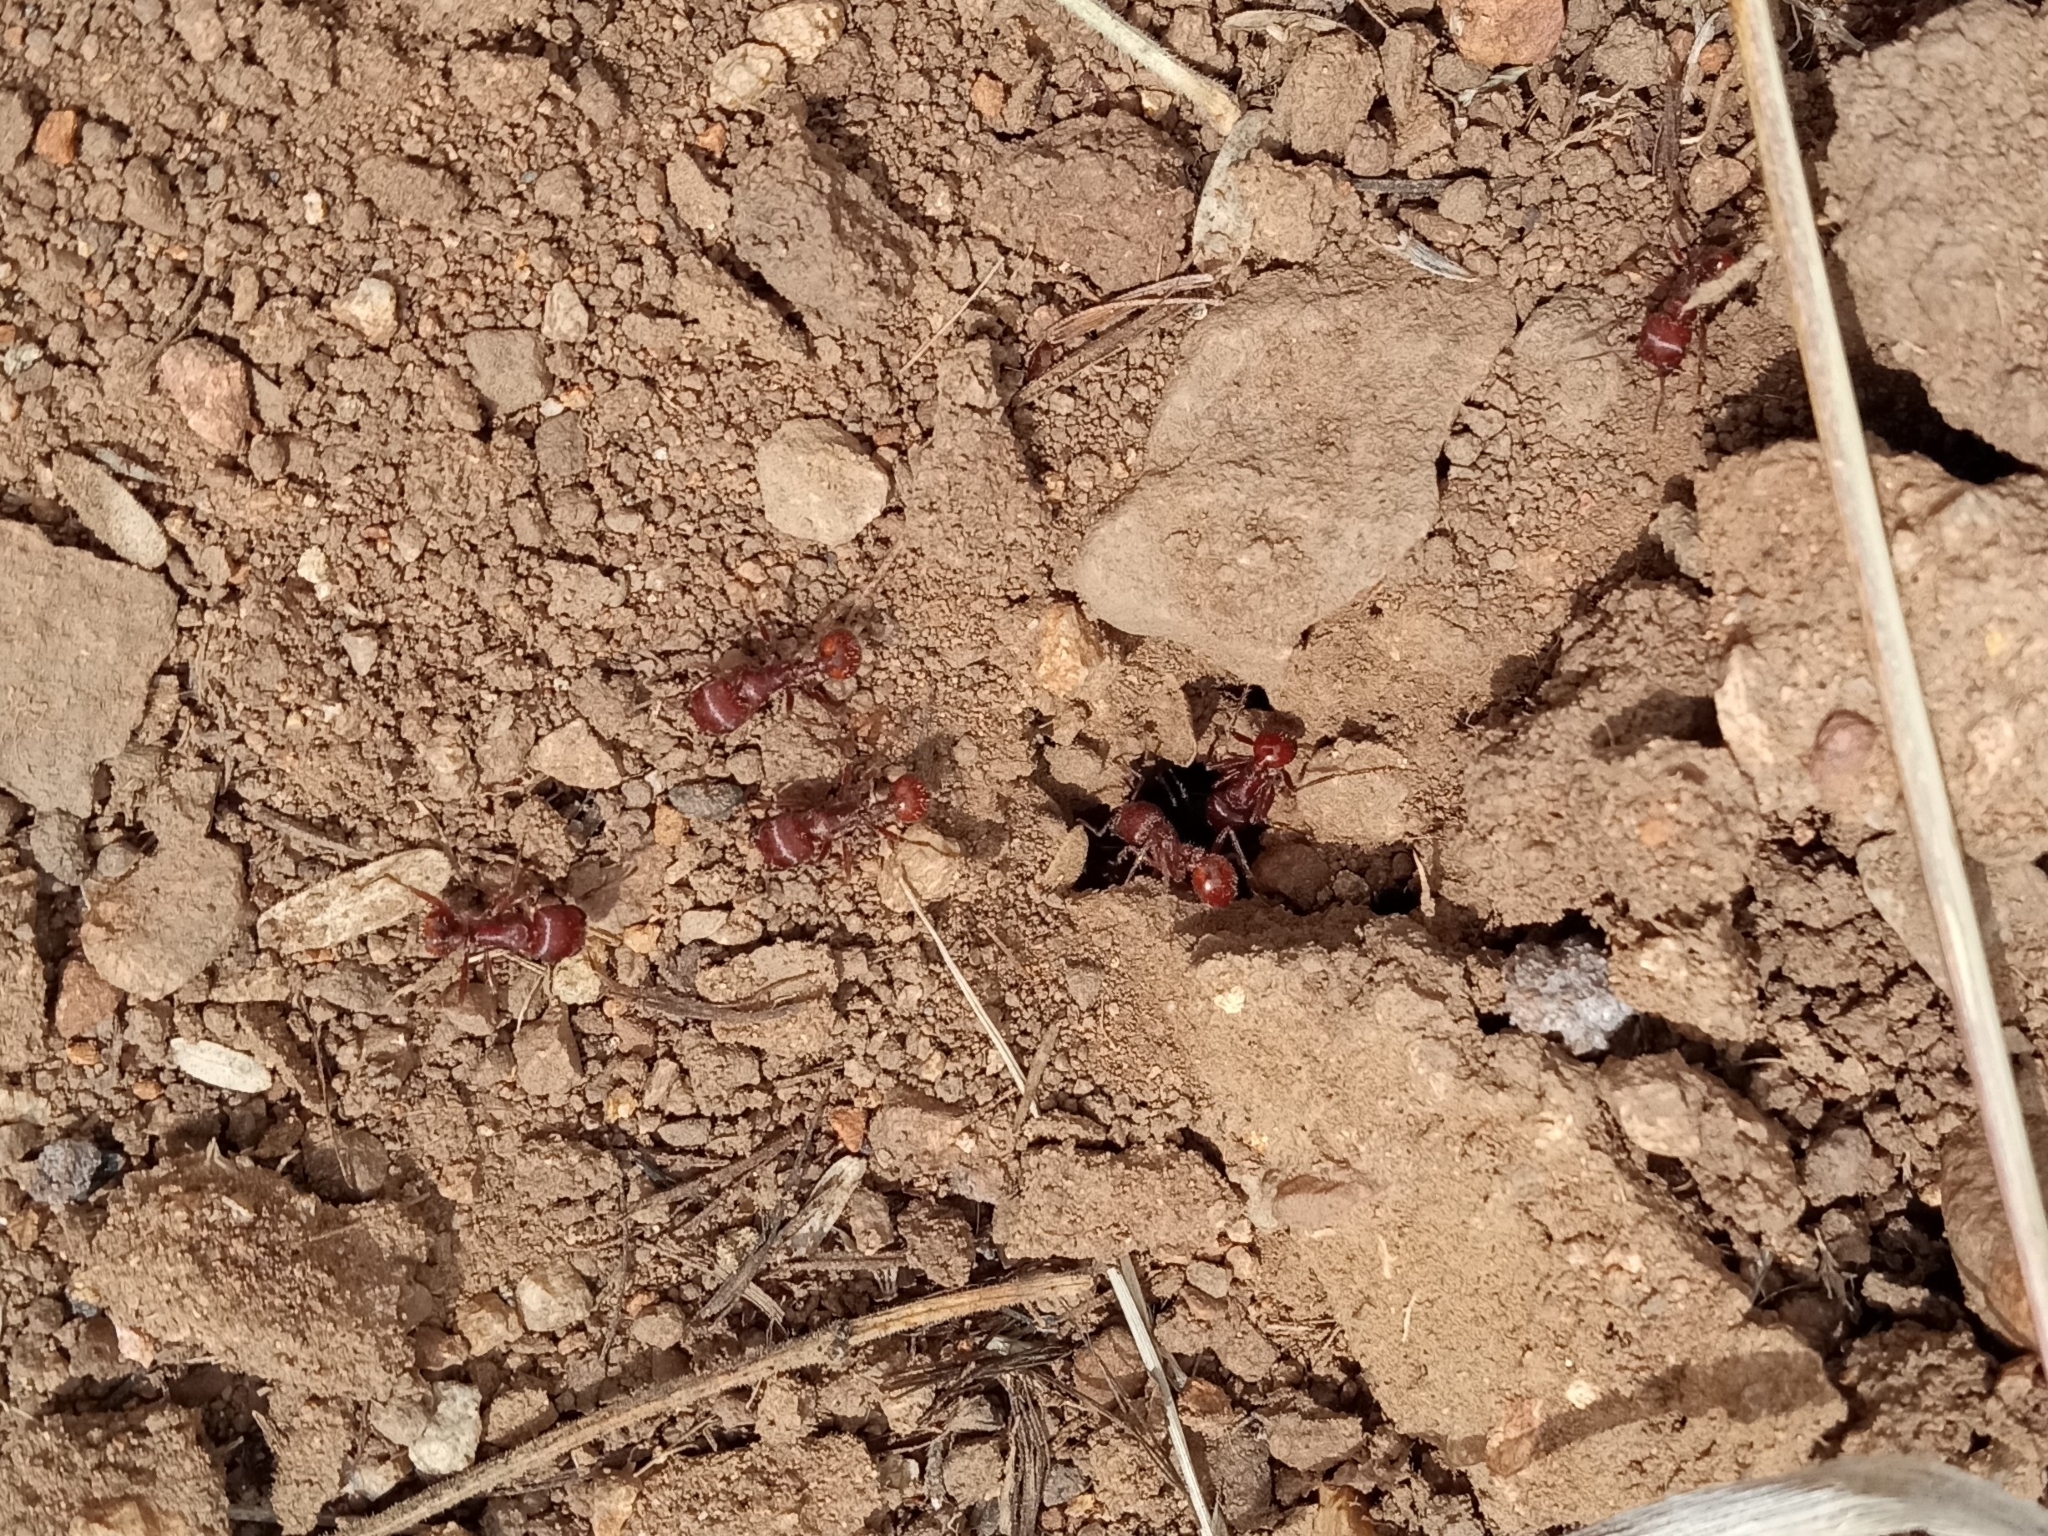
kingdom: Animalia
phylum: Arthropoda
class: Insecta
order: Hymenoptera
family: Formicidae
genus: Pogonomyrmex
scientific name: Pogonomyrmex barbatus
